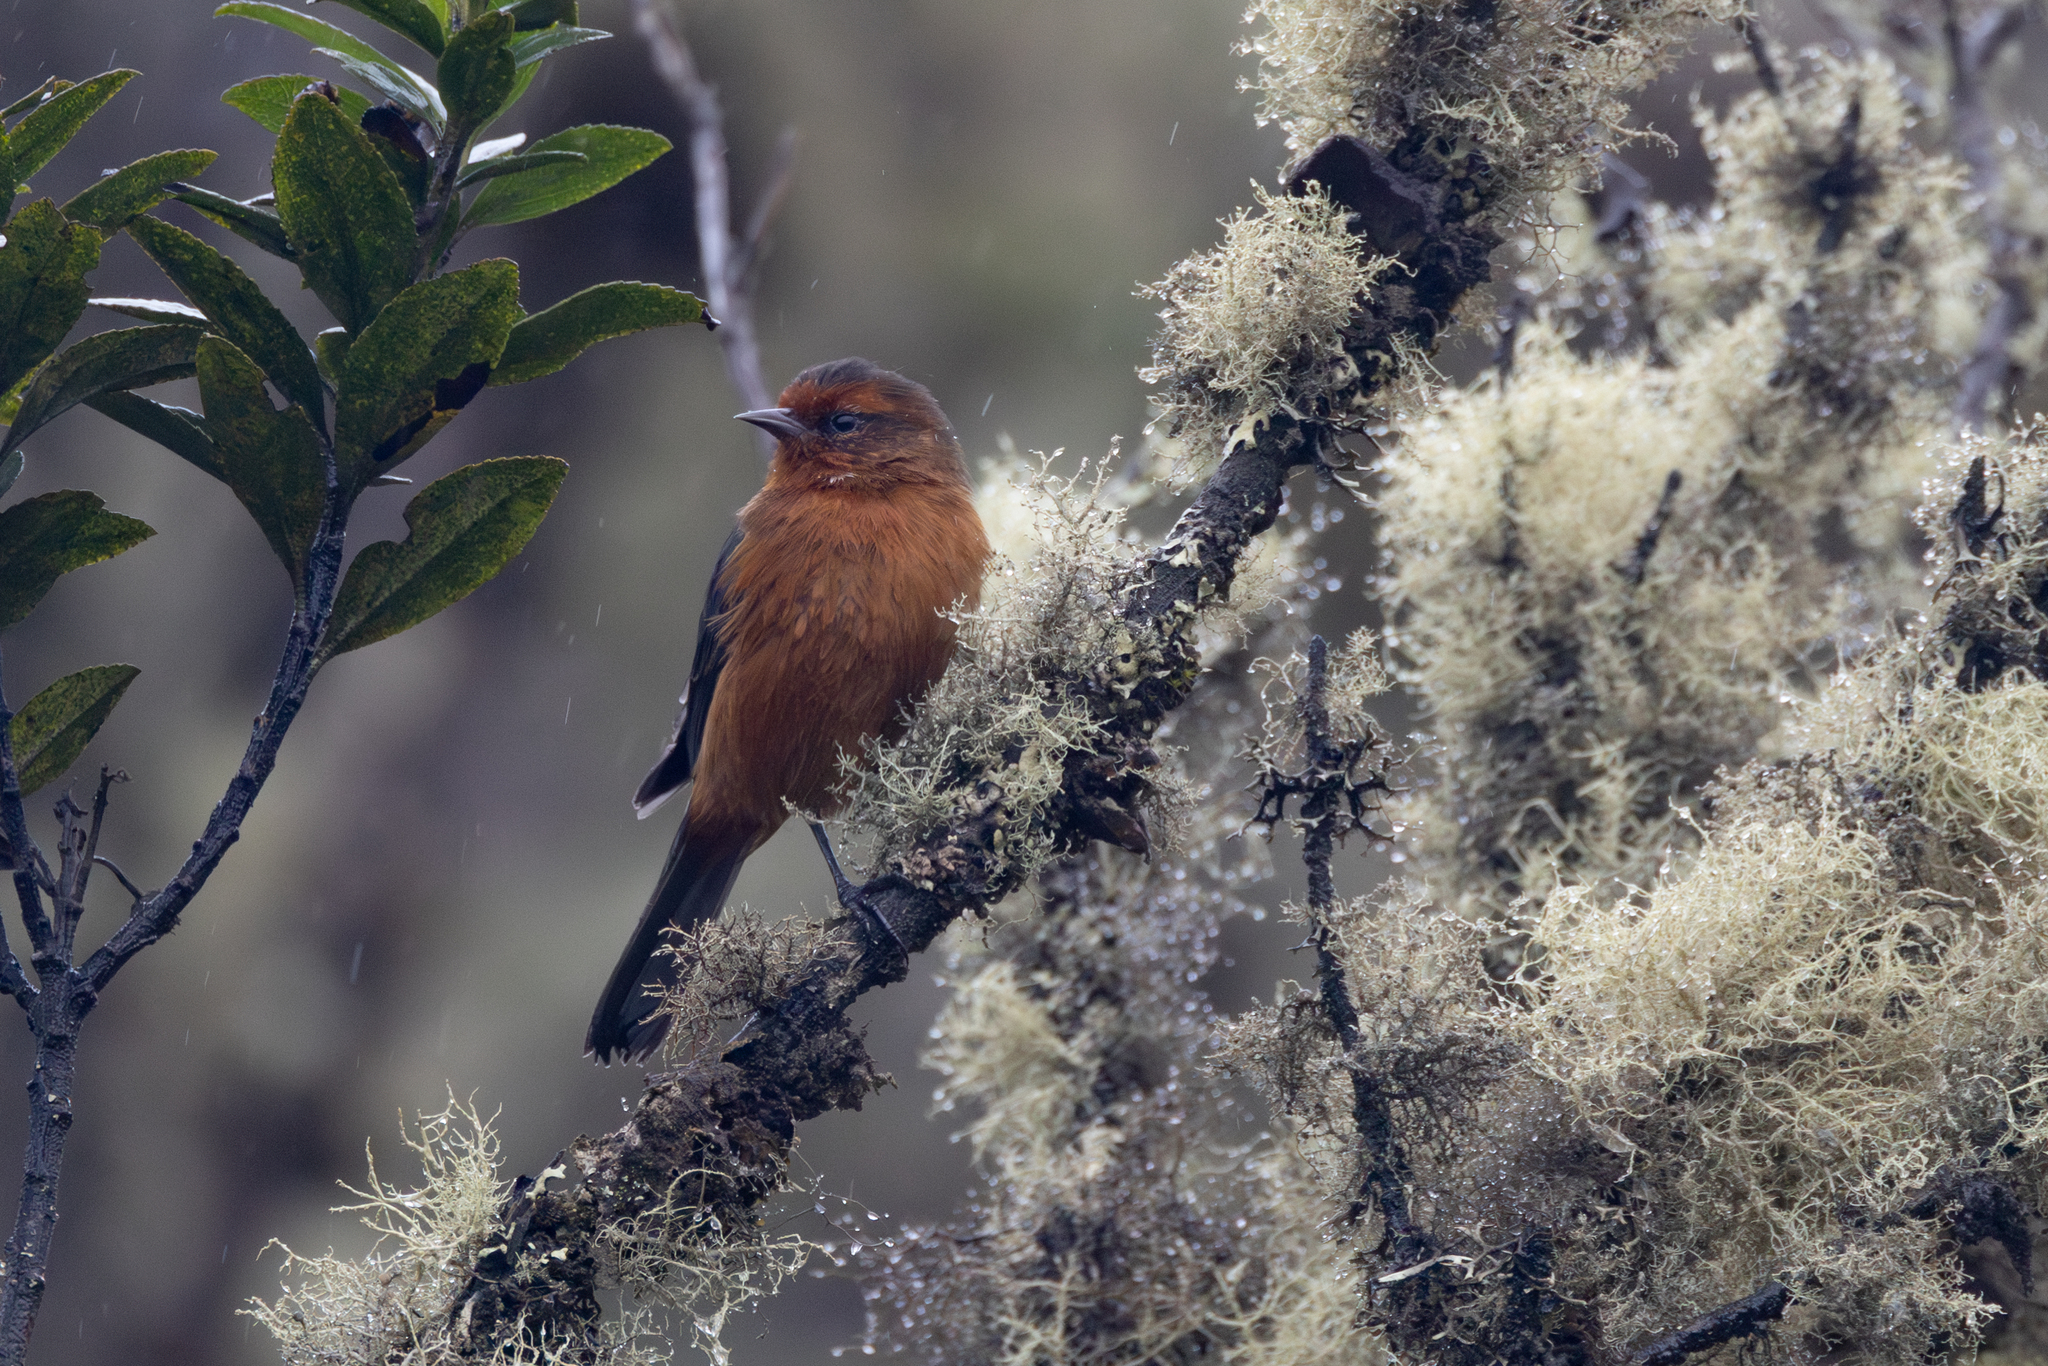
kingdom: Animalia
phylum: Chordata
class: Aves
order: Passeriformes
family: Thraupidae
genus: Conirostrum
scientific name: Conirostrum rufum
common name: Rufous-browed conebill
